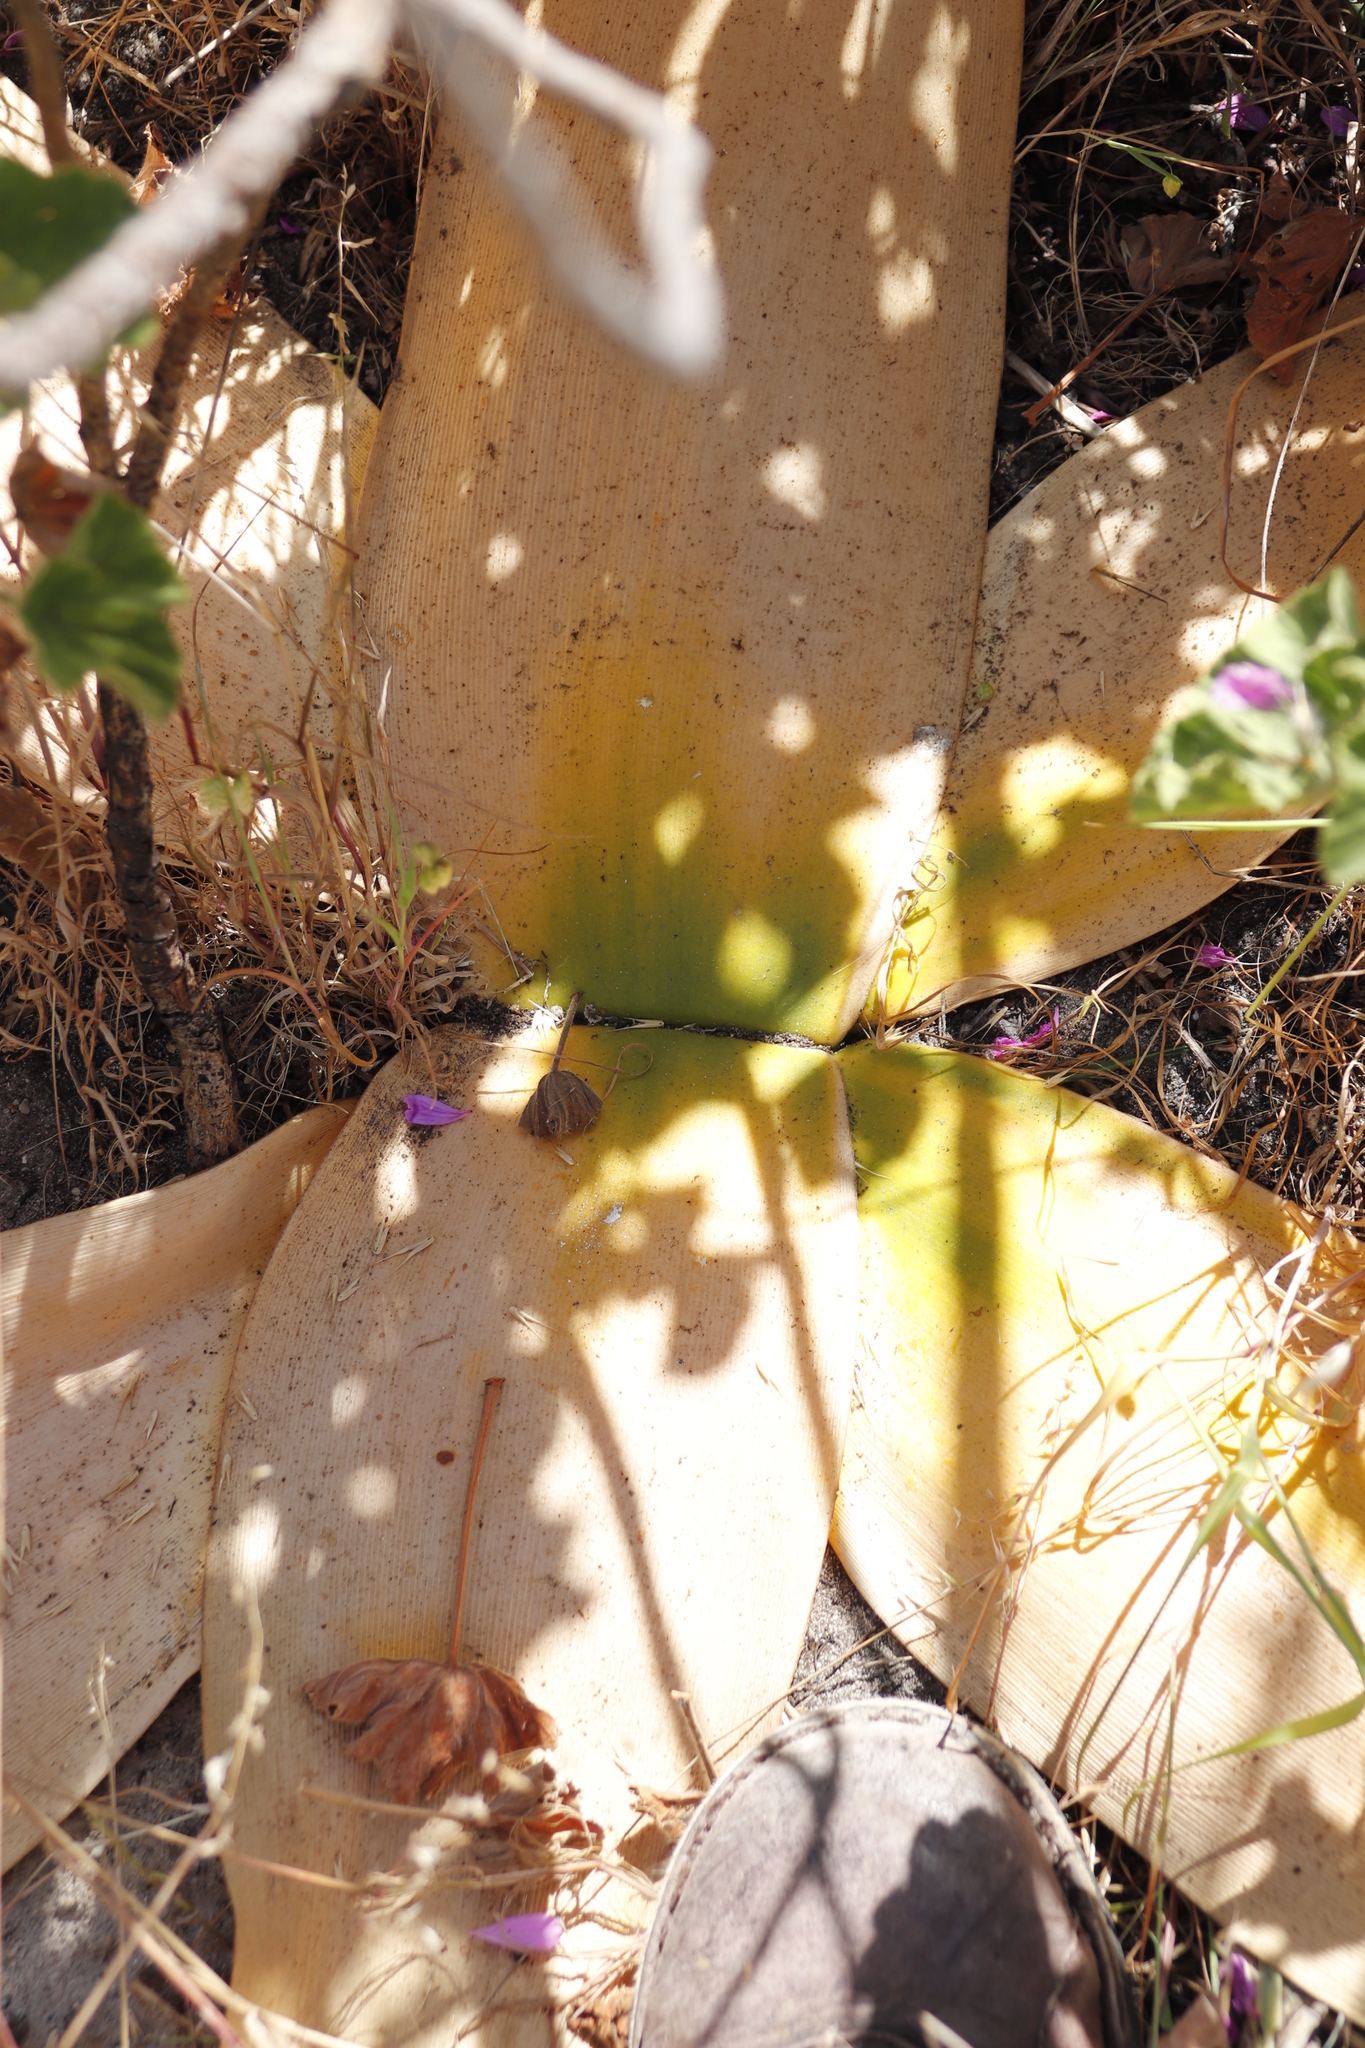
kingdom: Plantae
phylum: Tracheophyta
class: Liliopsida
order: Asparagales
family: Amaryllidaceae
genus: Brunsvigia
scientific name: Brunsvigia orientalis
